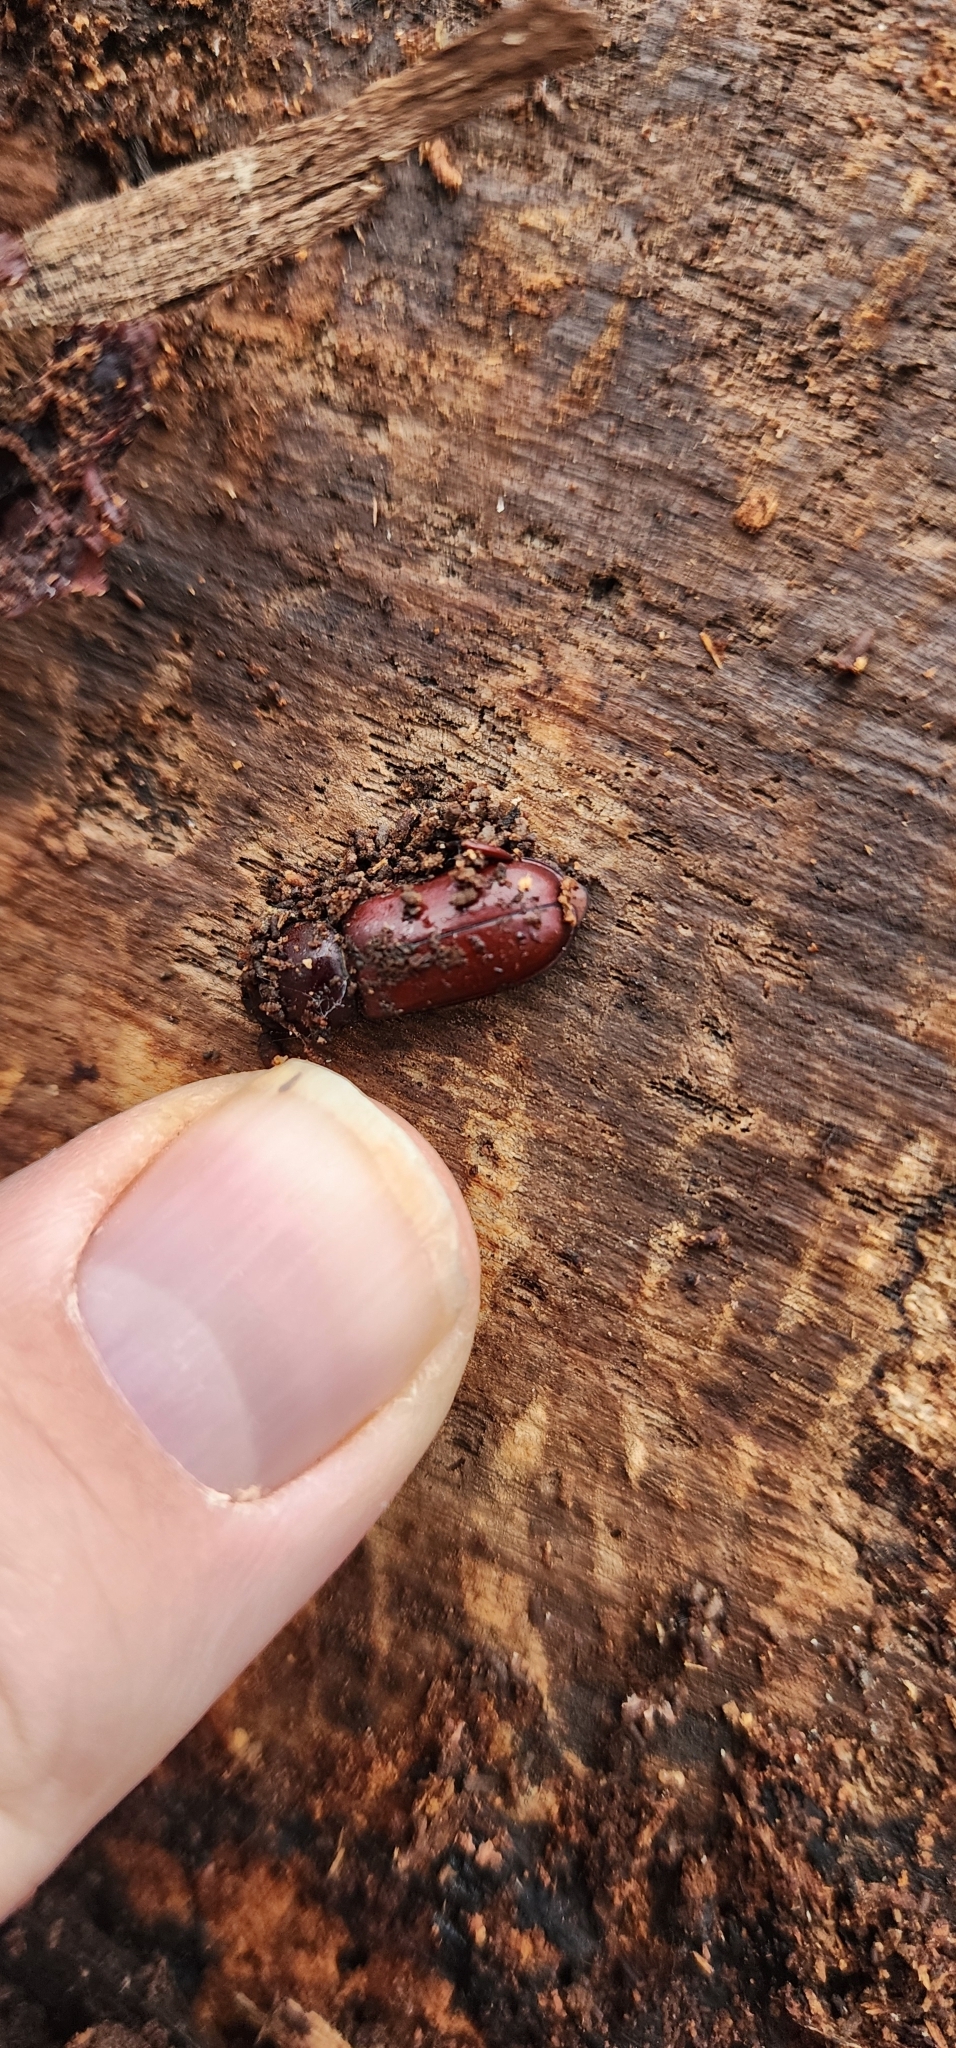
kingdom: Animalia
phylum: Arthropoda
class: Insecta
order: Coleoptera
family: Cerambycidae
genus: Neandra
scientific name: Neandra brunnea
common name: Pole borer
